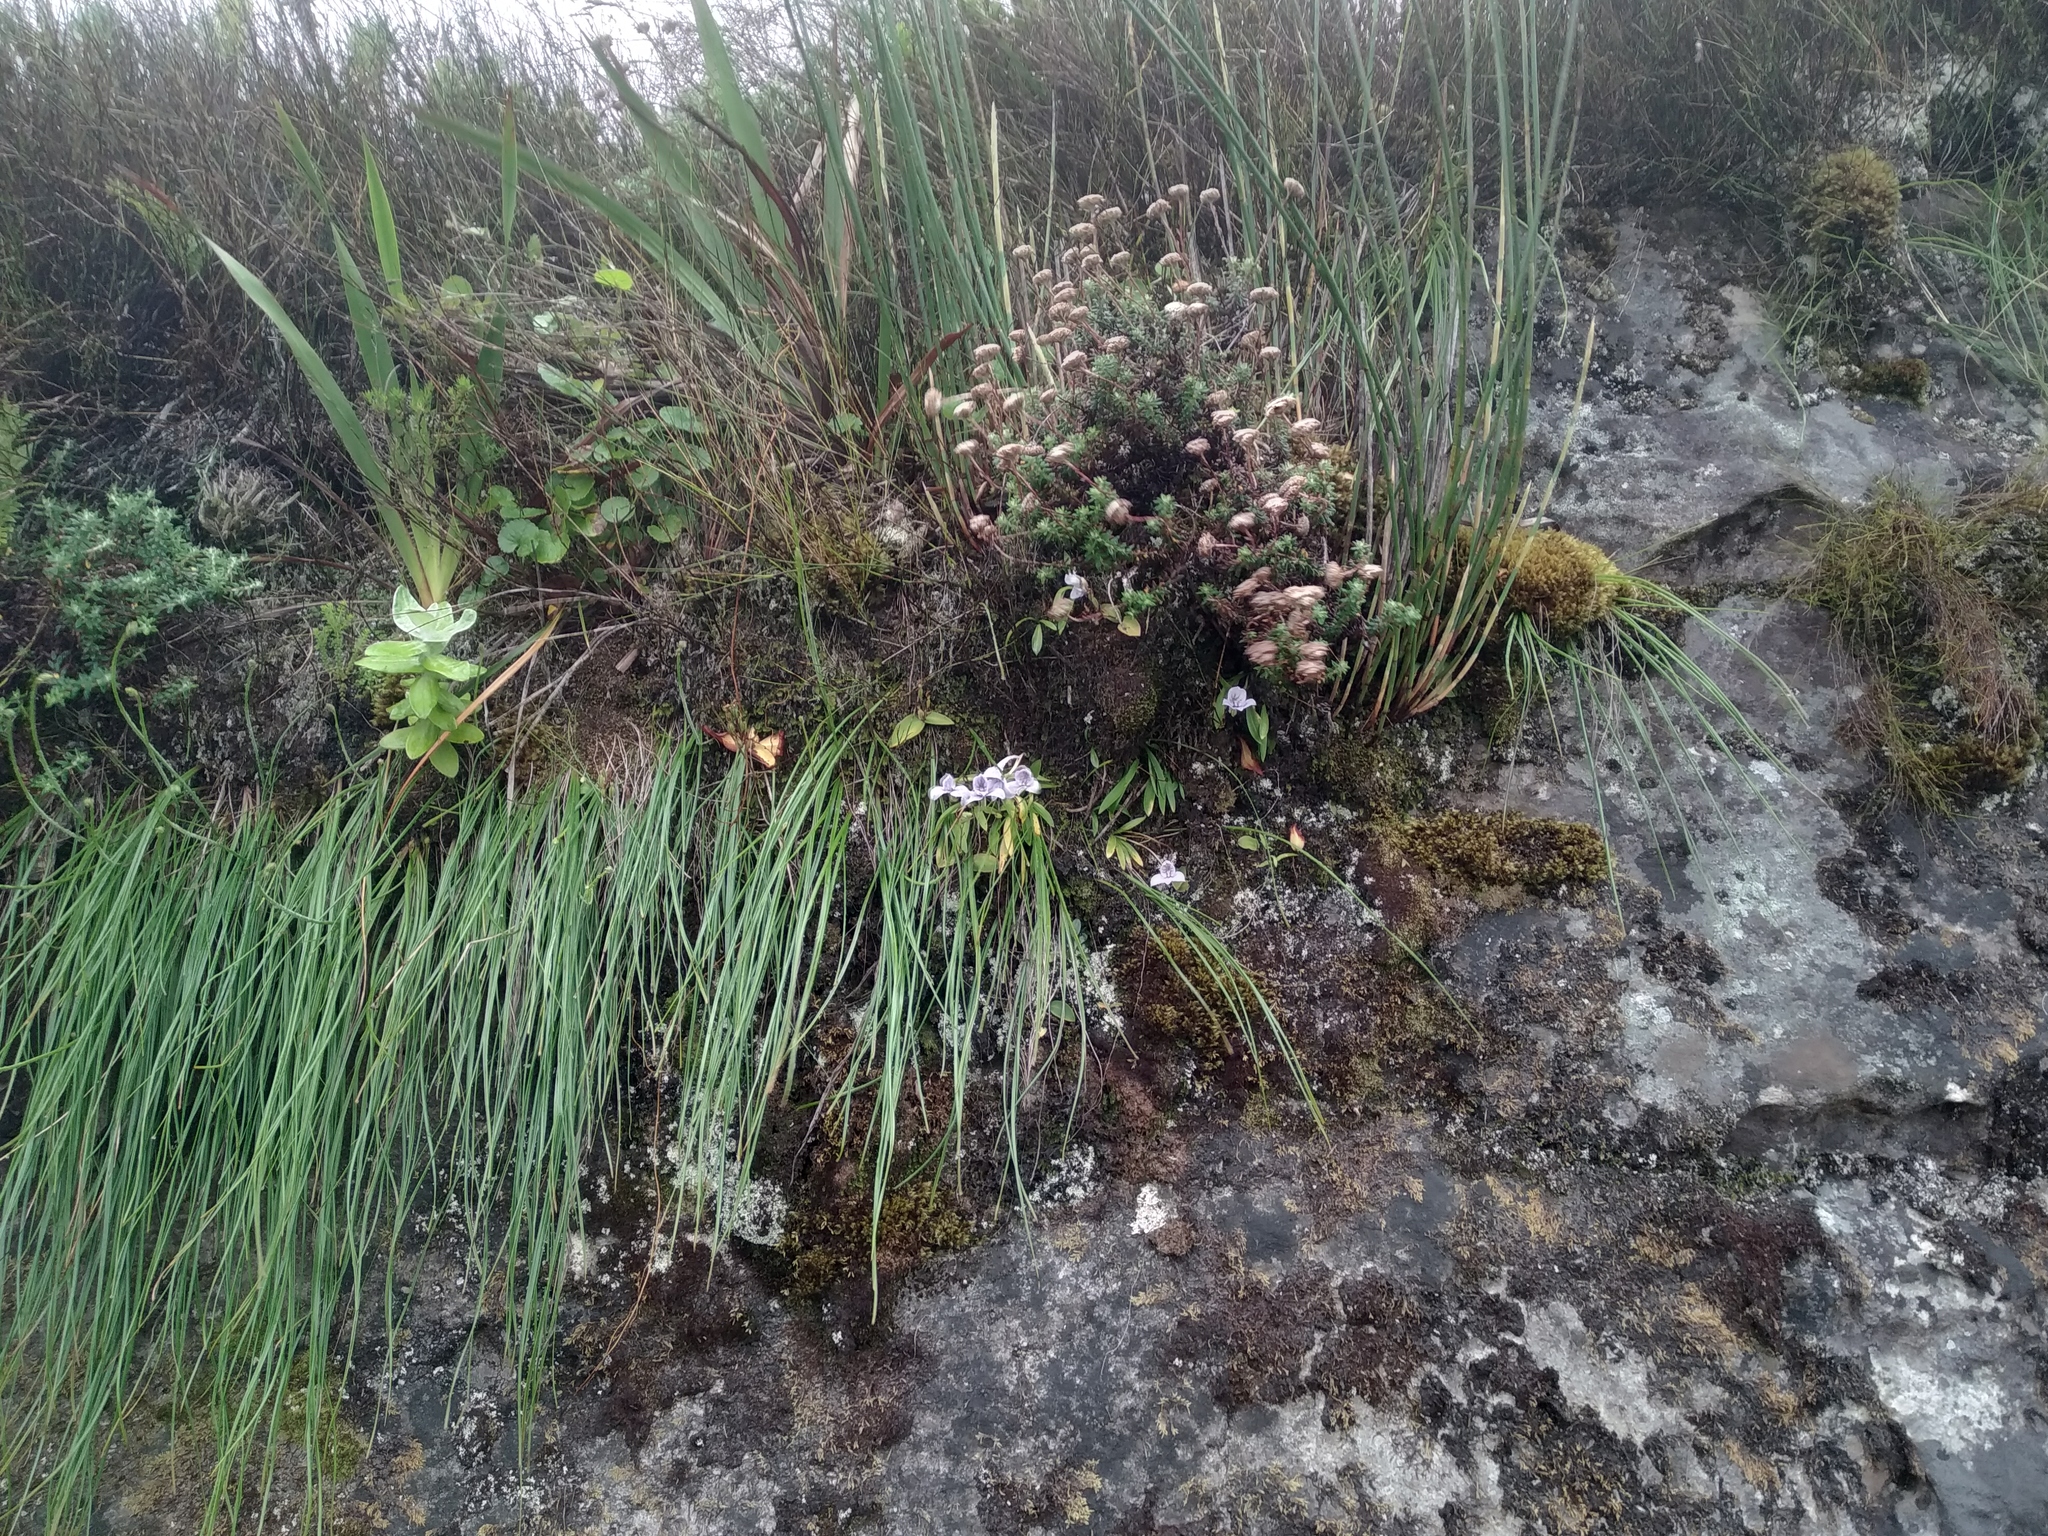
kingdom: Plantae
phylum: Tracheophyta
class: Liliopsida
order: Asparagales
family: Orchidaceae
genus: Disa
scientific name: Disa longicornu
